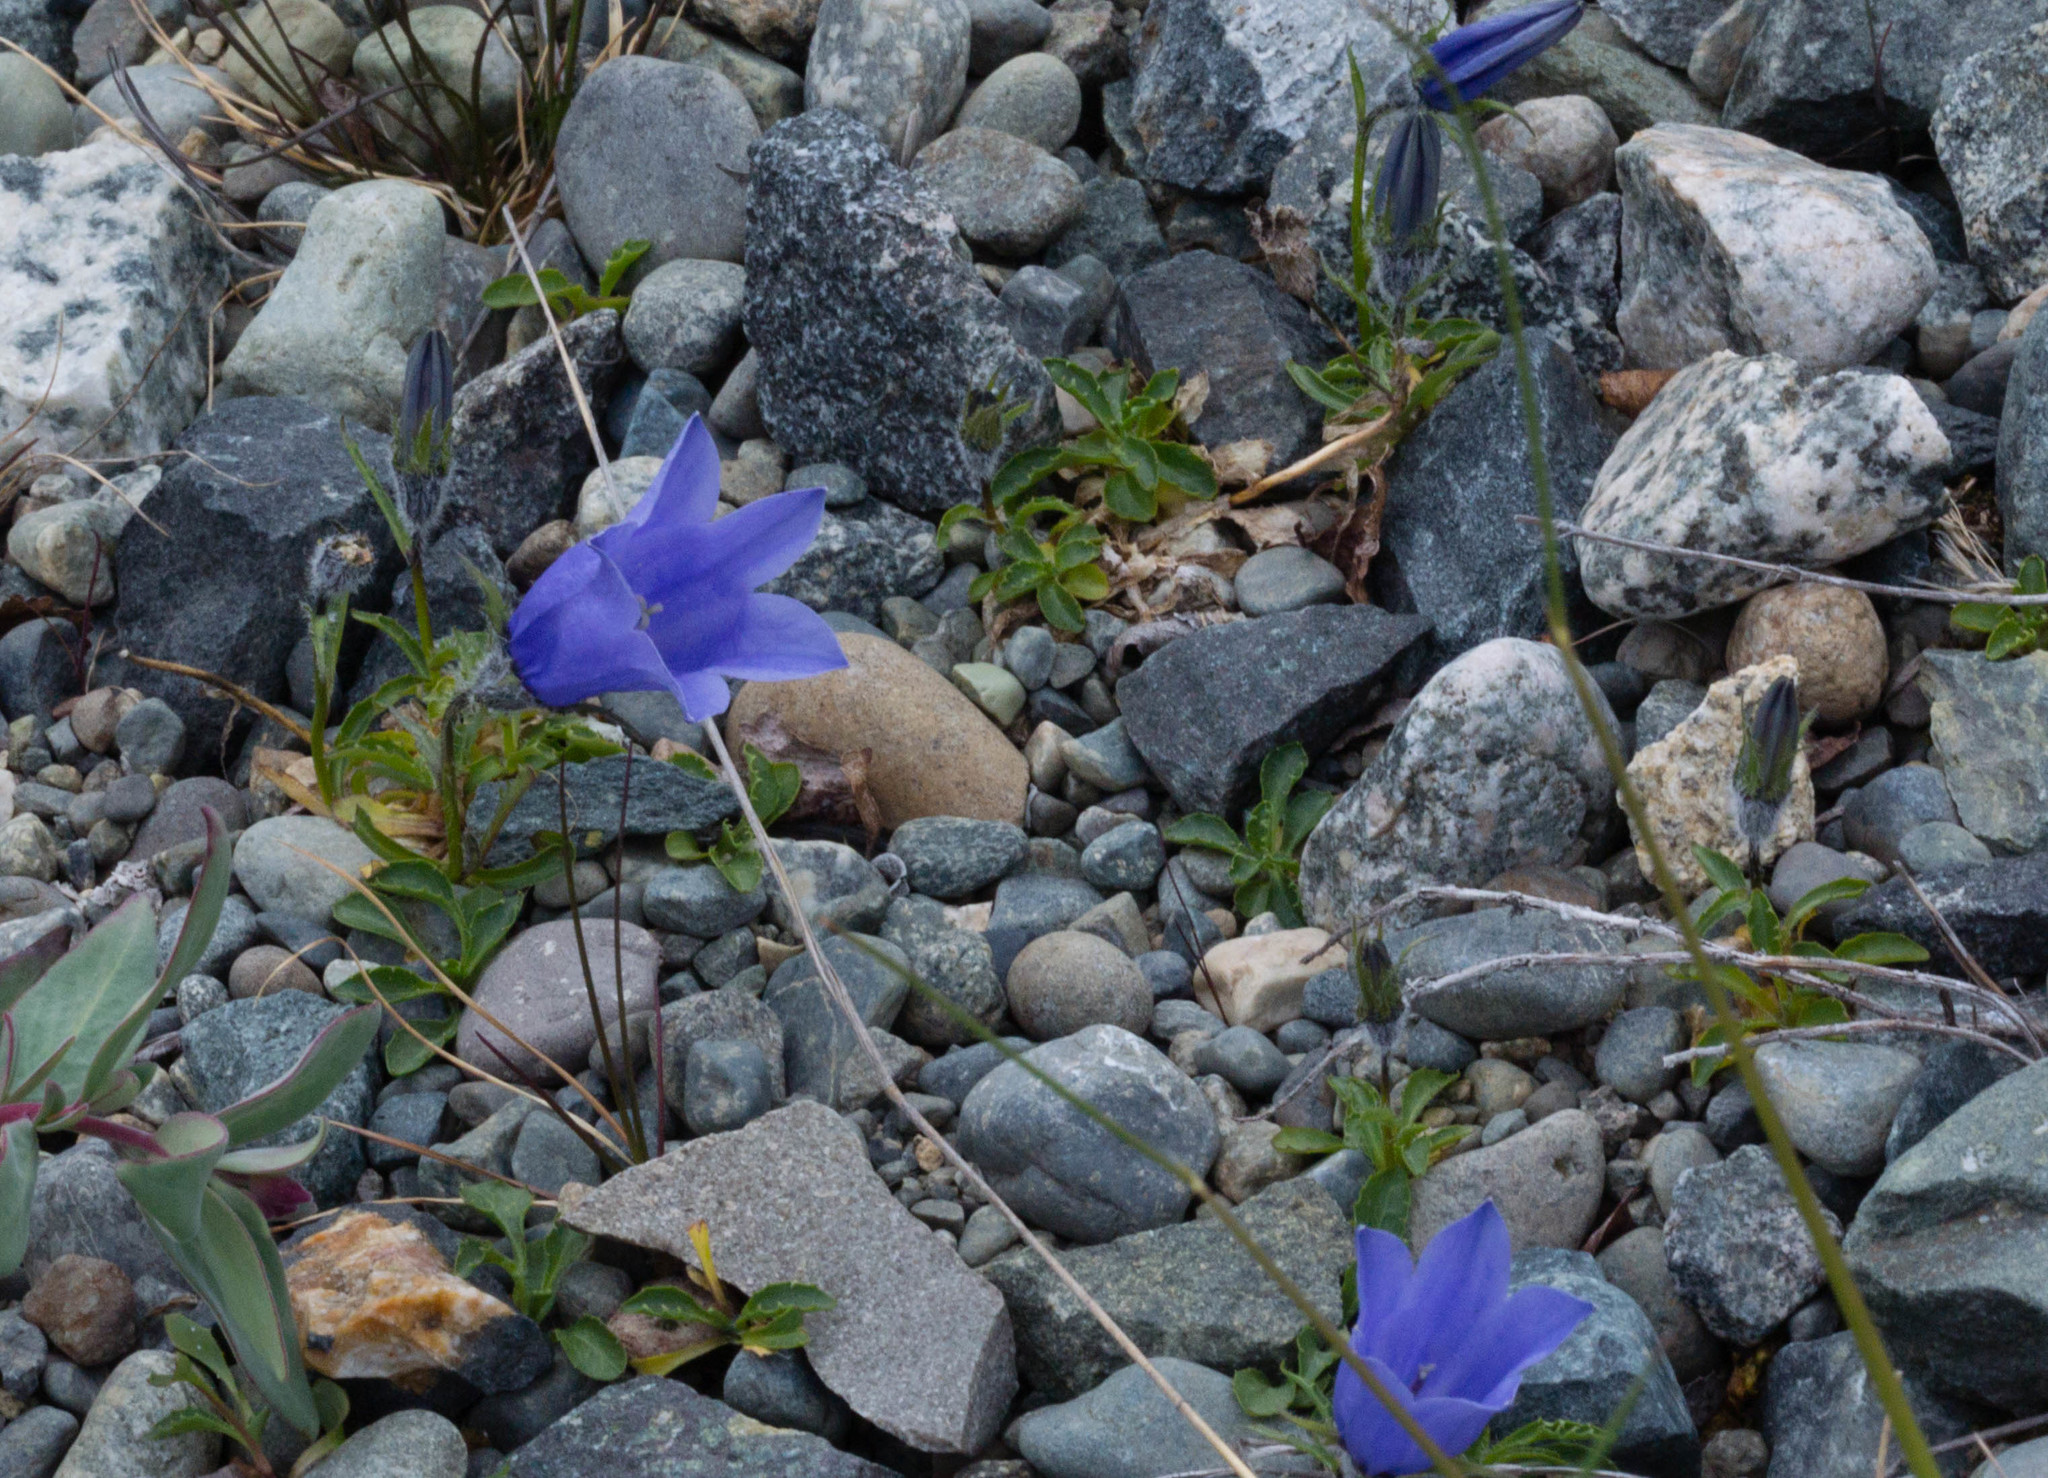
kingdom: Plantae
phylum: Tracheophyta
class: Magnoliopsida
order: Asterales
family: Campanulaceae
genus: Campanula
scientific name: Campanula lasiocarpa
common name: Mountain harebell
